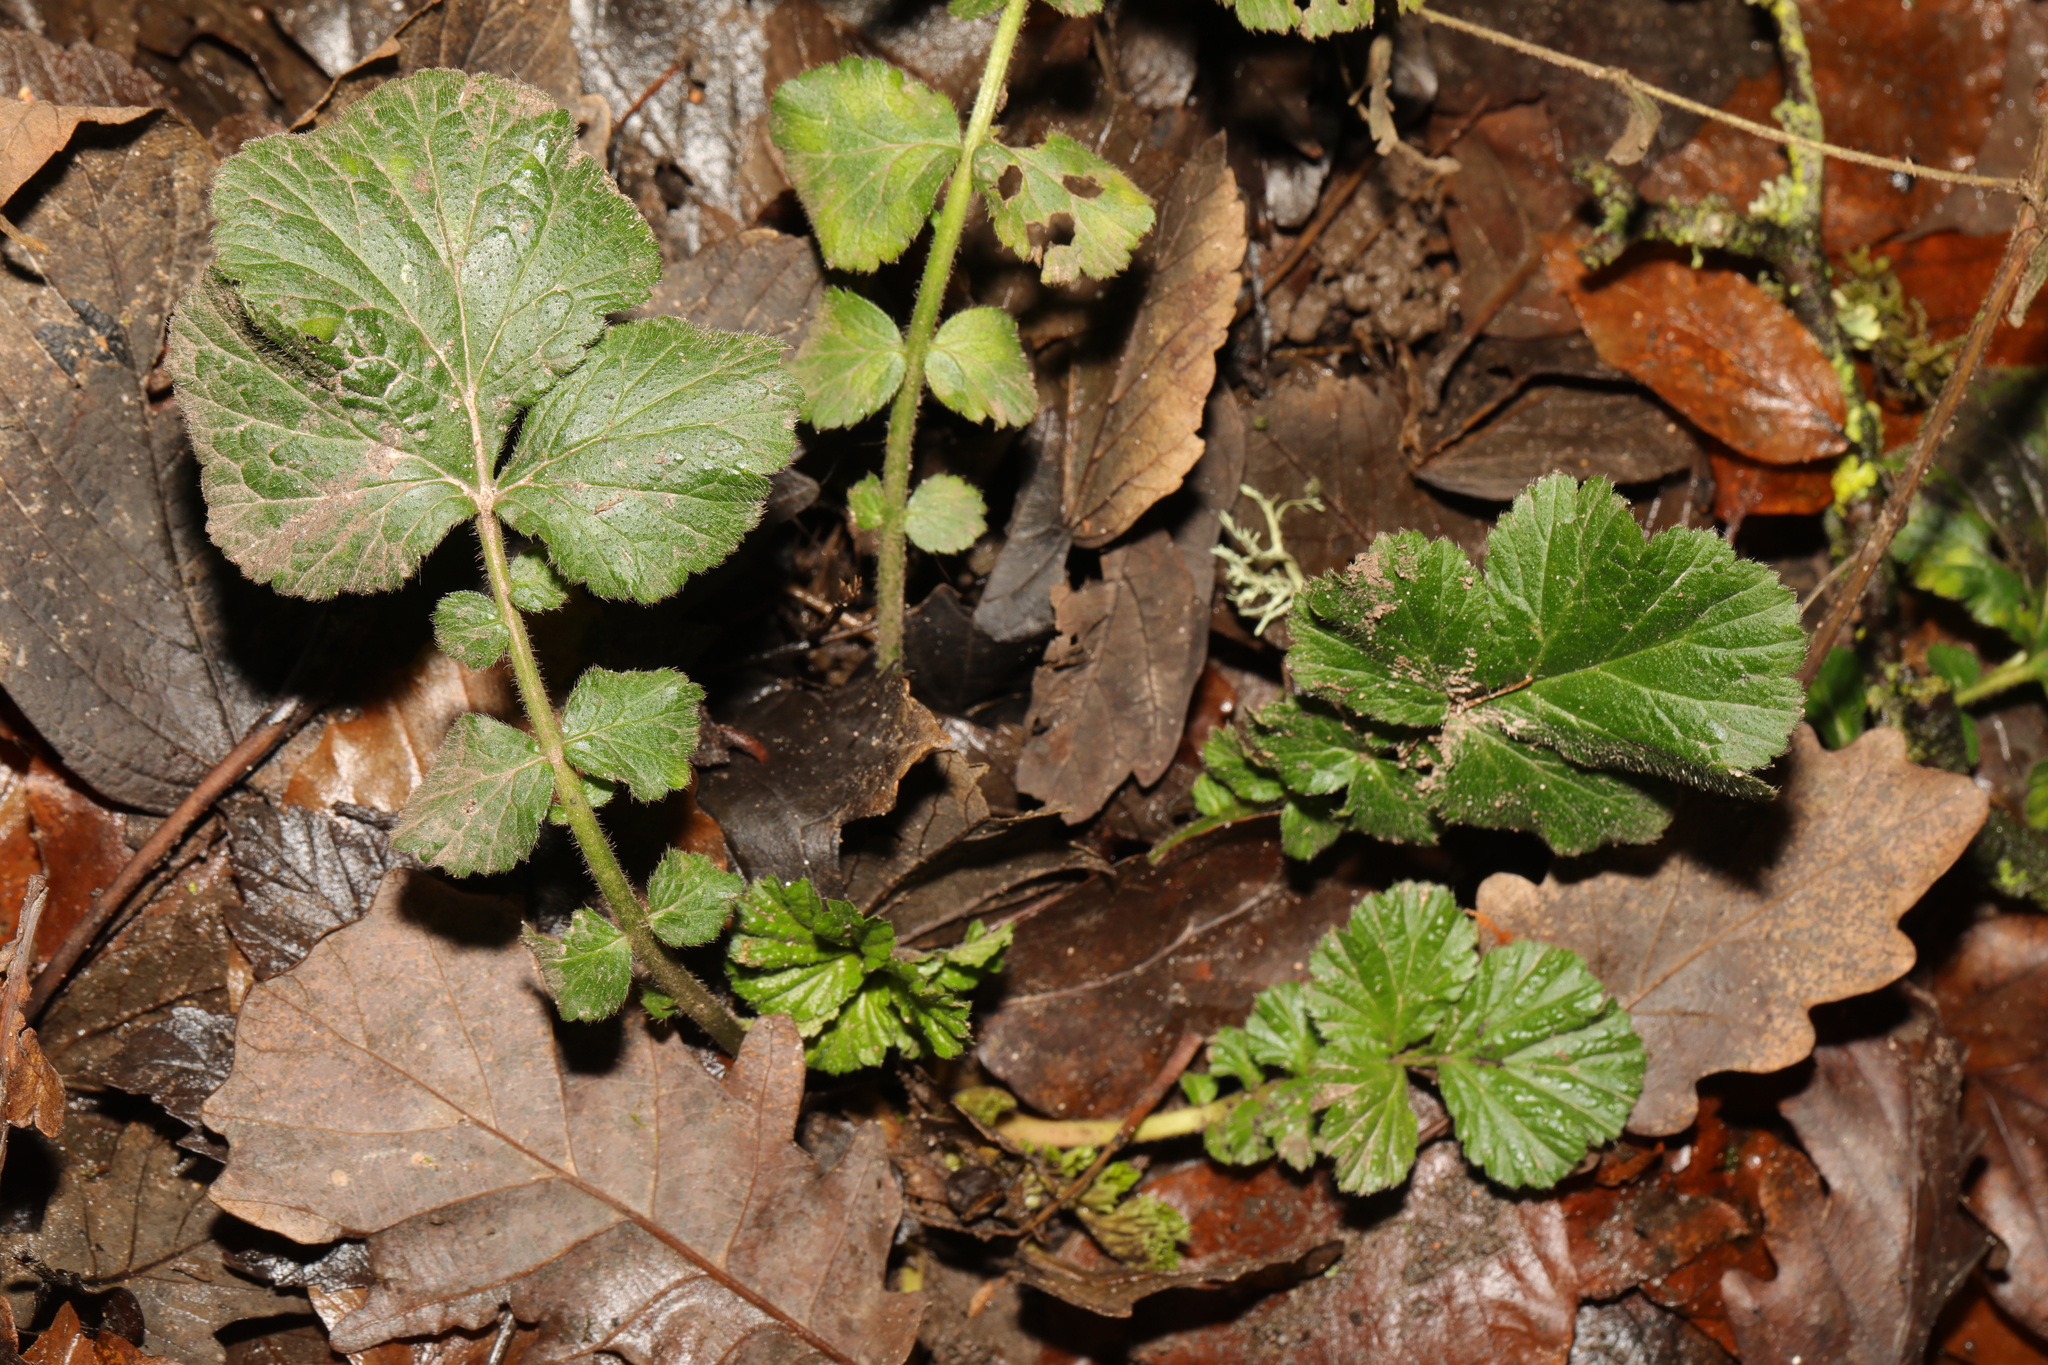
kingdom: Plantae
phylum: Tracheophyta
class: Magnoliopsida
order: Rosales
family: Rosaceae
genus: Geum
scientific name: Geum urbanum
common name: Wood avens
